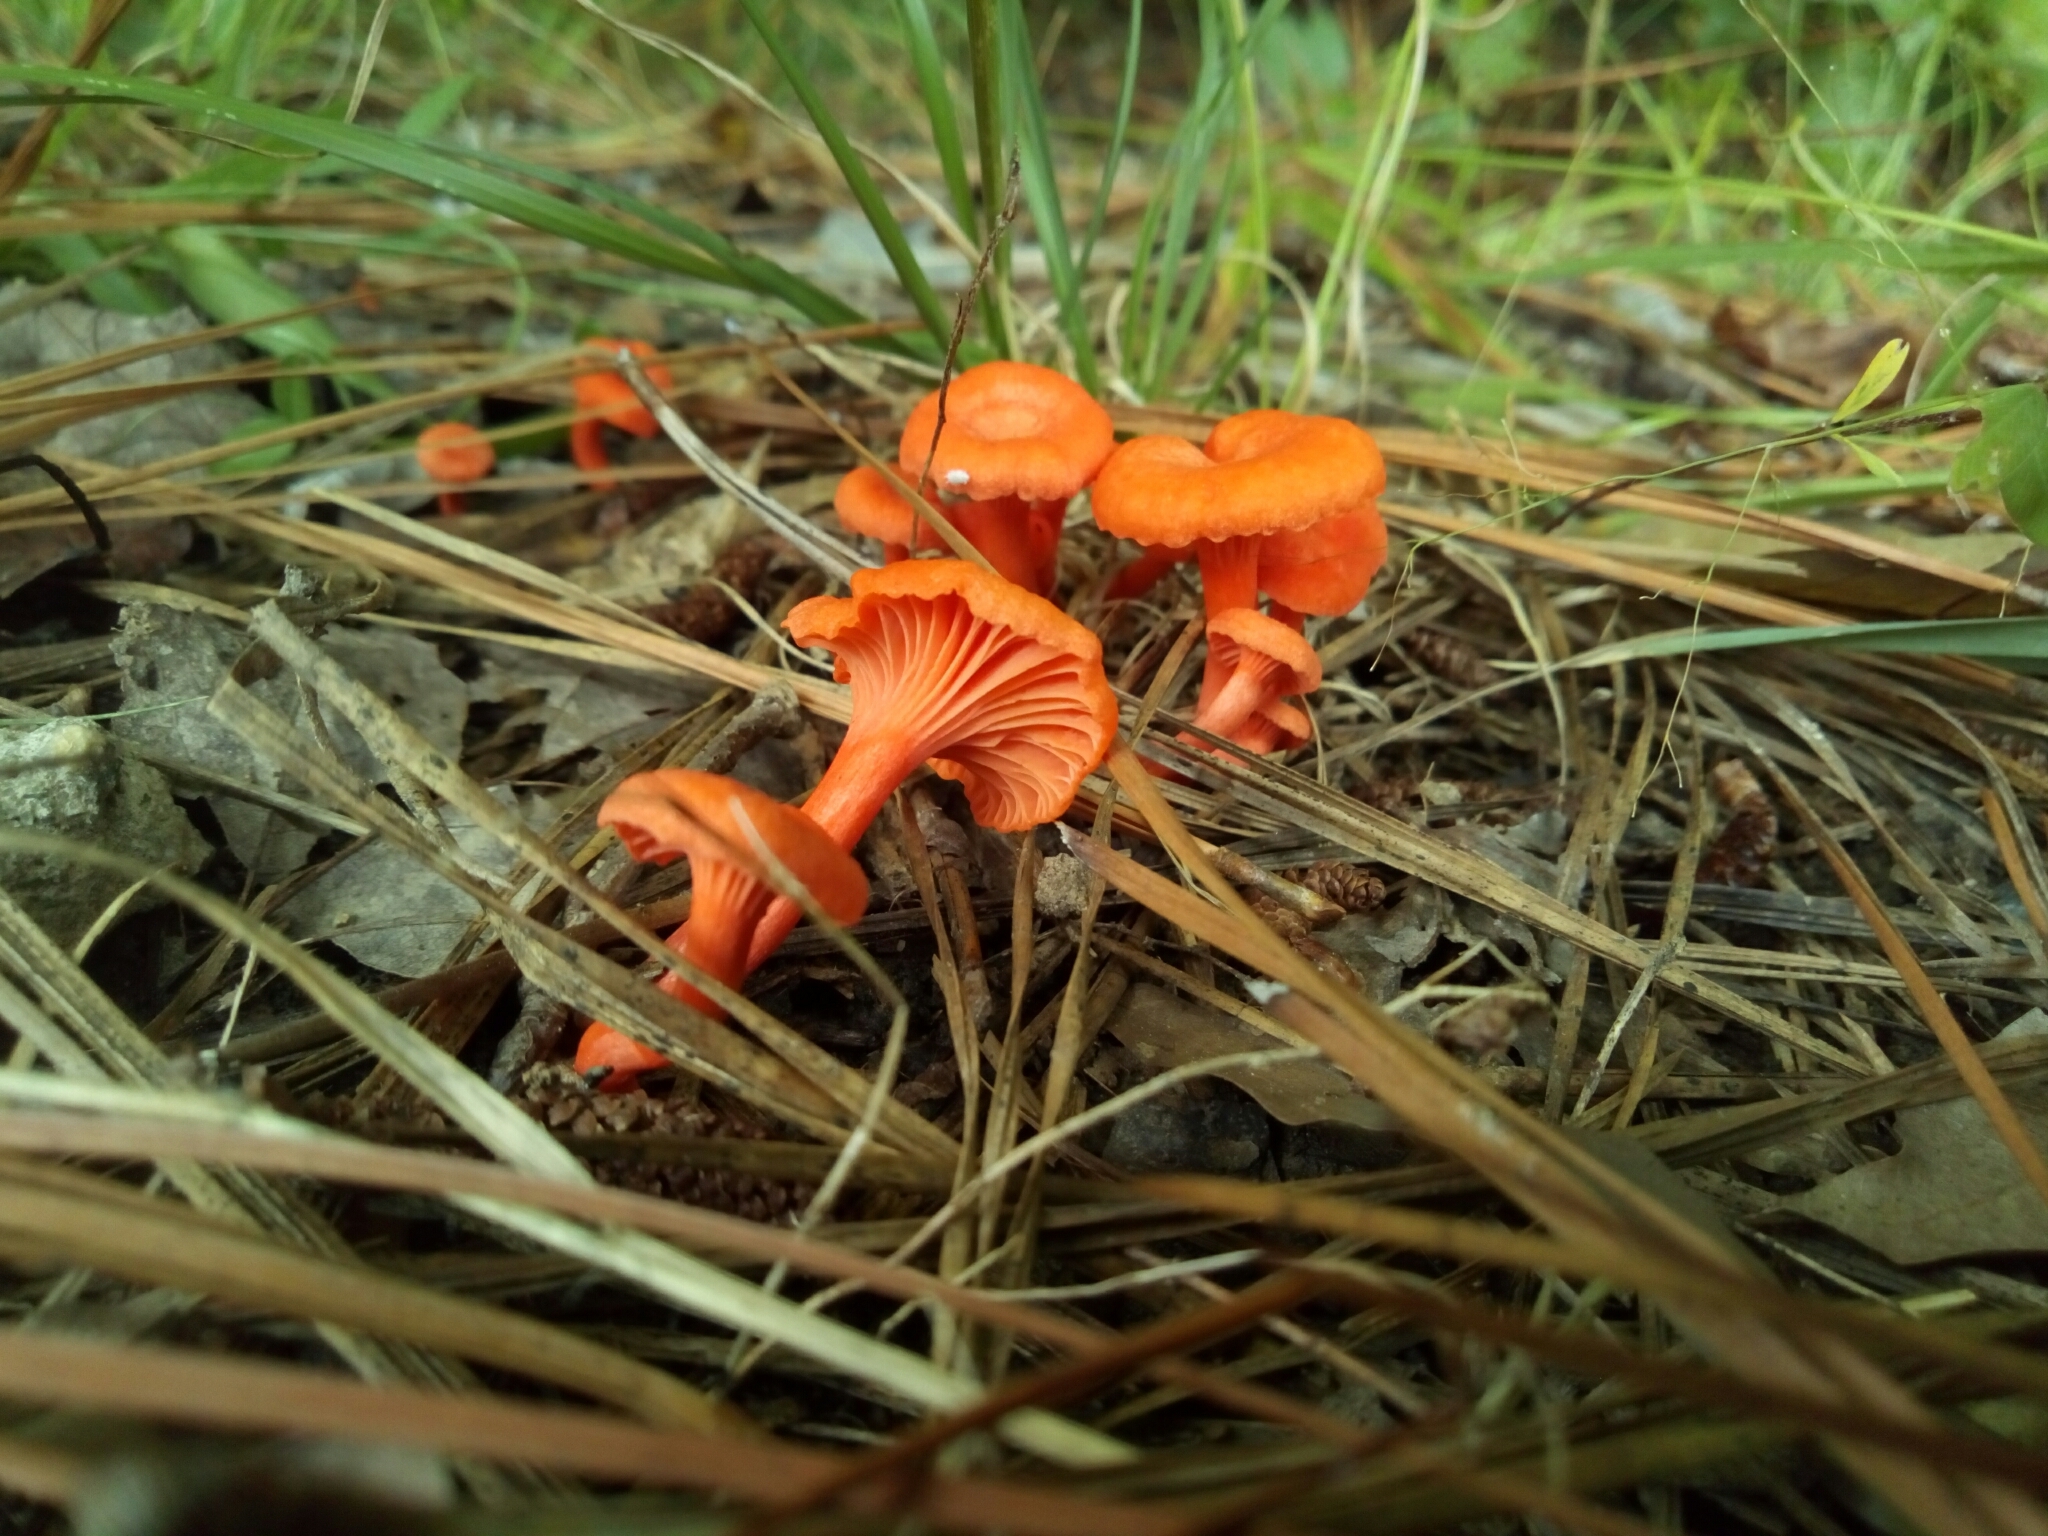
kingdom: Fungi
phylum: Basidiomycota
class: Agaricomycetes
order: Cantharellales
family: Hydnaceae
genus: Cantharellus
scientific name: Cantharellus cinnabarinus
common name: Cinnabar chanterelle
